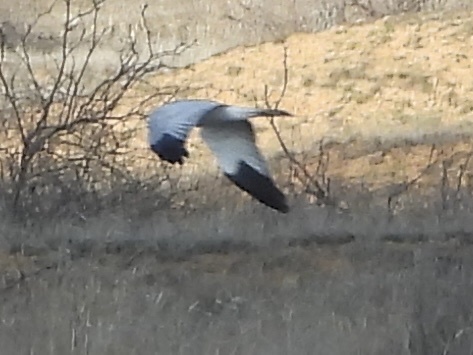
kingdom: Animalia
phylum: Chordata
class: Aves
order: Accipitriformes
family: Accipitridae
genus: Circus
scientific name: Circus cyaneus
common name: Hen harrier
